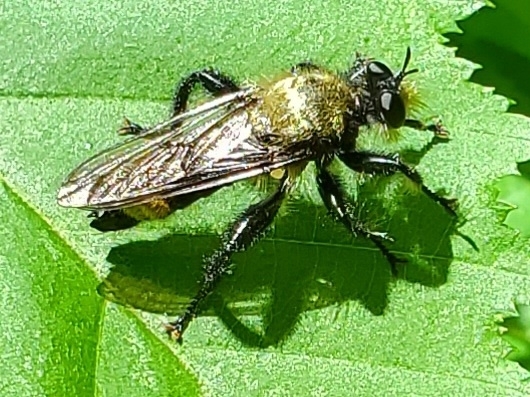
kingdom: Animalia
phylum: Arthropoda
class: Insecta
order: Diptera
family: Asilidae
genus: Laphria
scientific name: Laphria divisor
